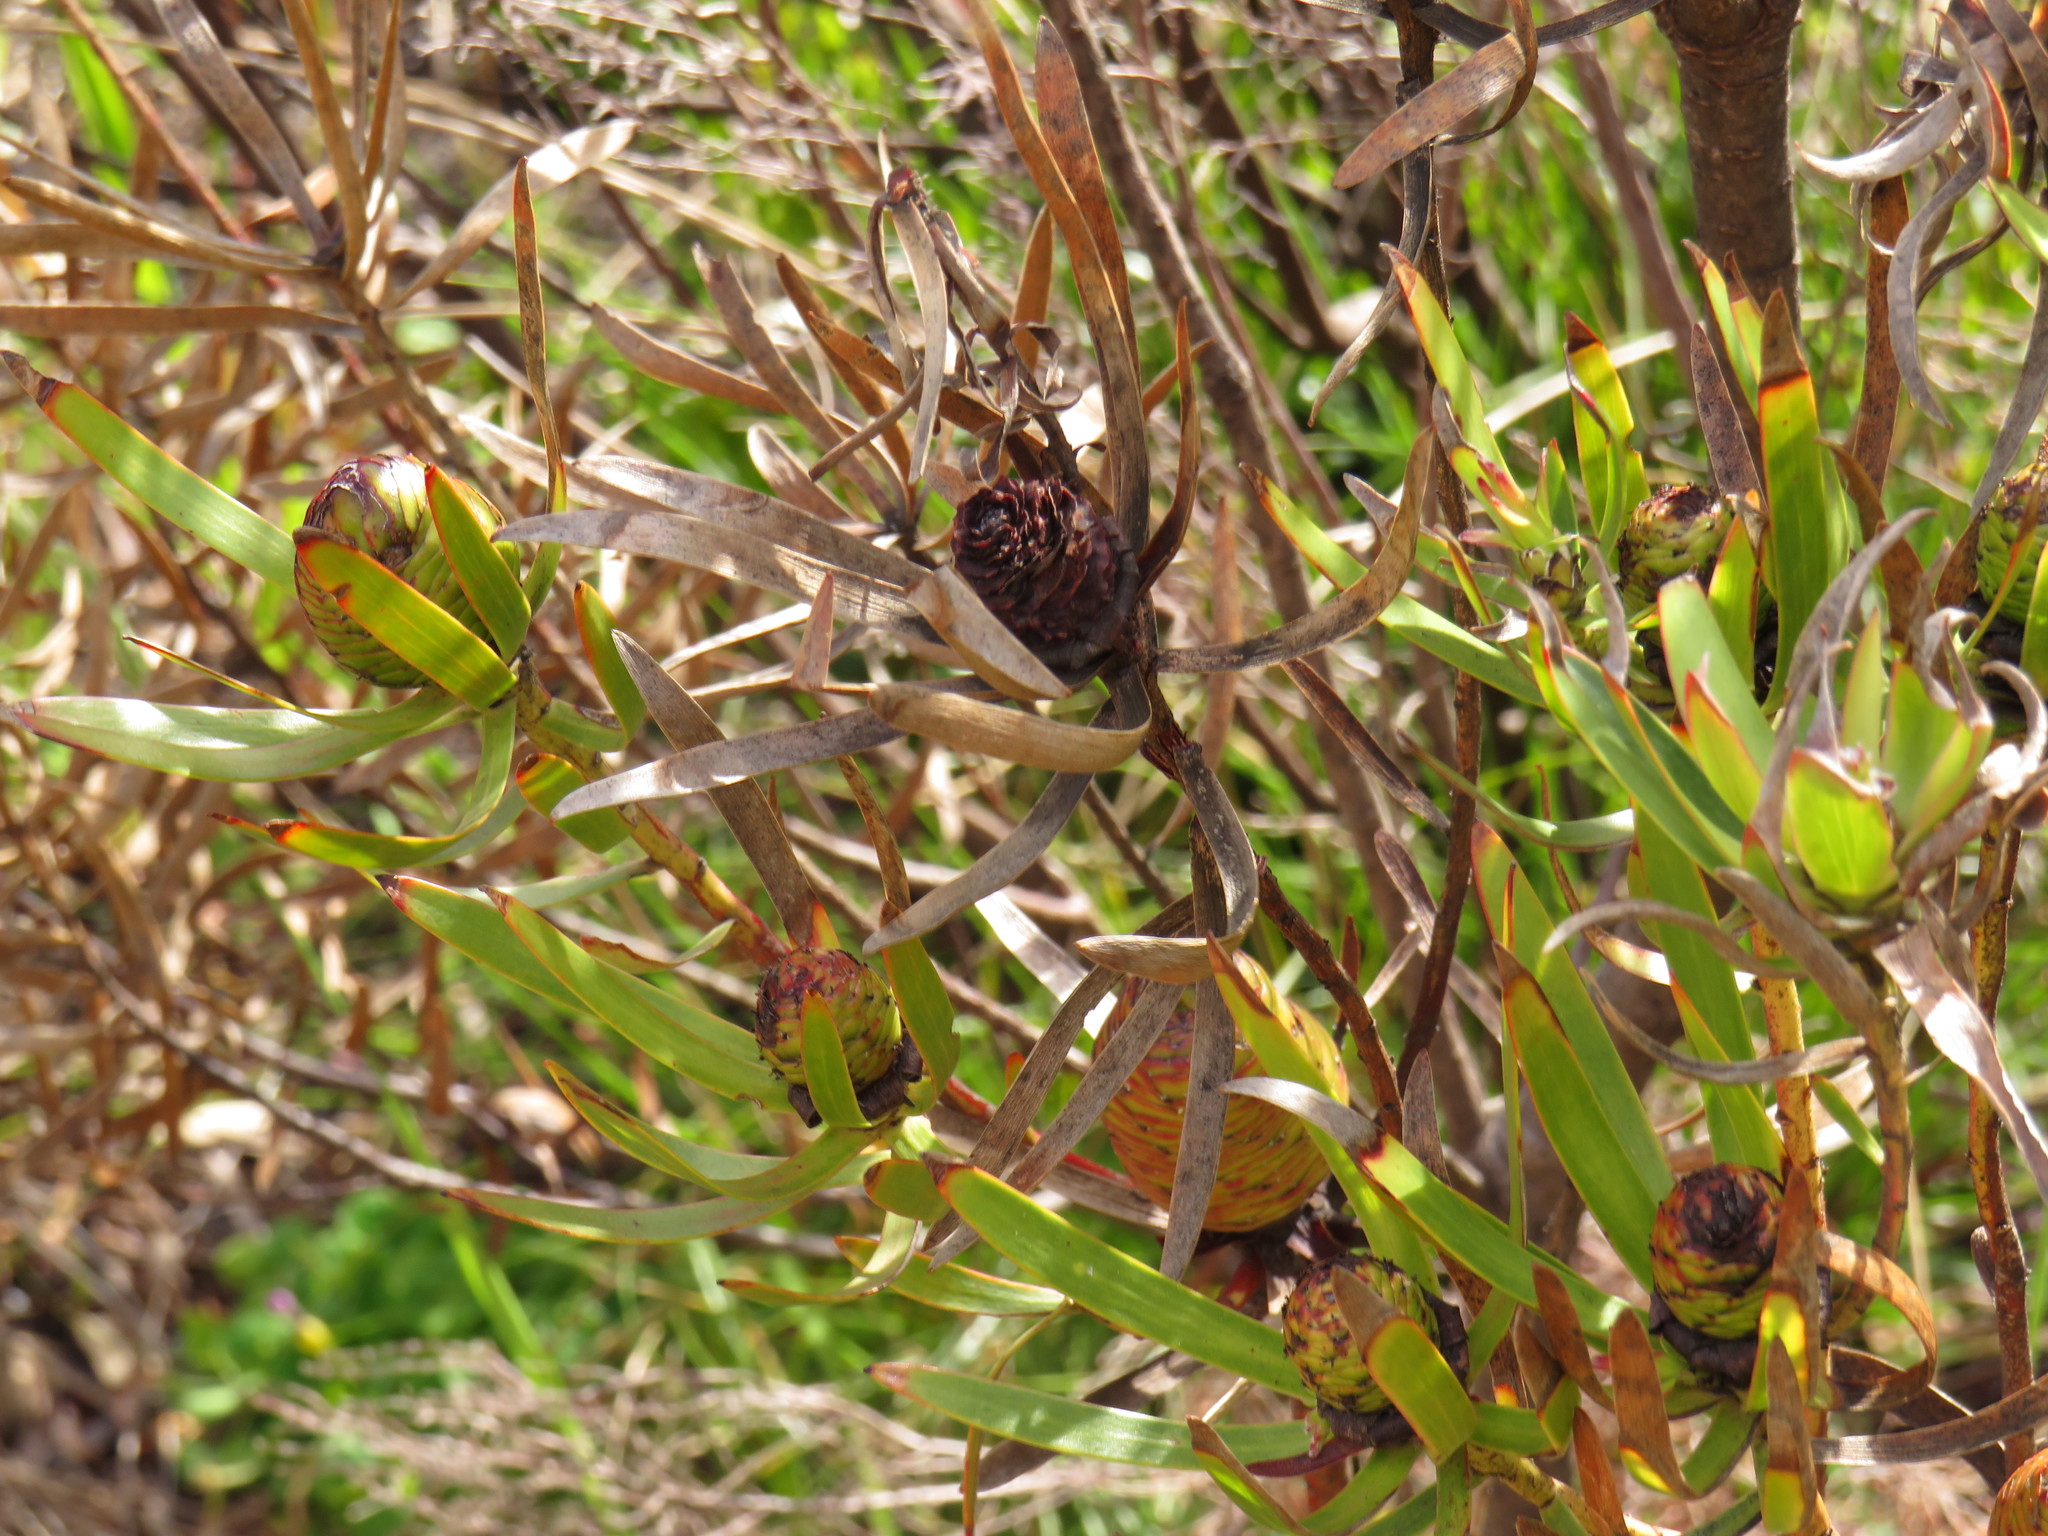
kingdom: Plantae
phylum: Tracheophyta
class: Magnoliopsida
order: Proteales
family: Proteaceae
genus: Leucadendron
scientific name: Leucadendron spissifolium
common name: Spear-leaf conebush
